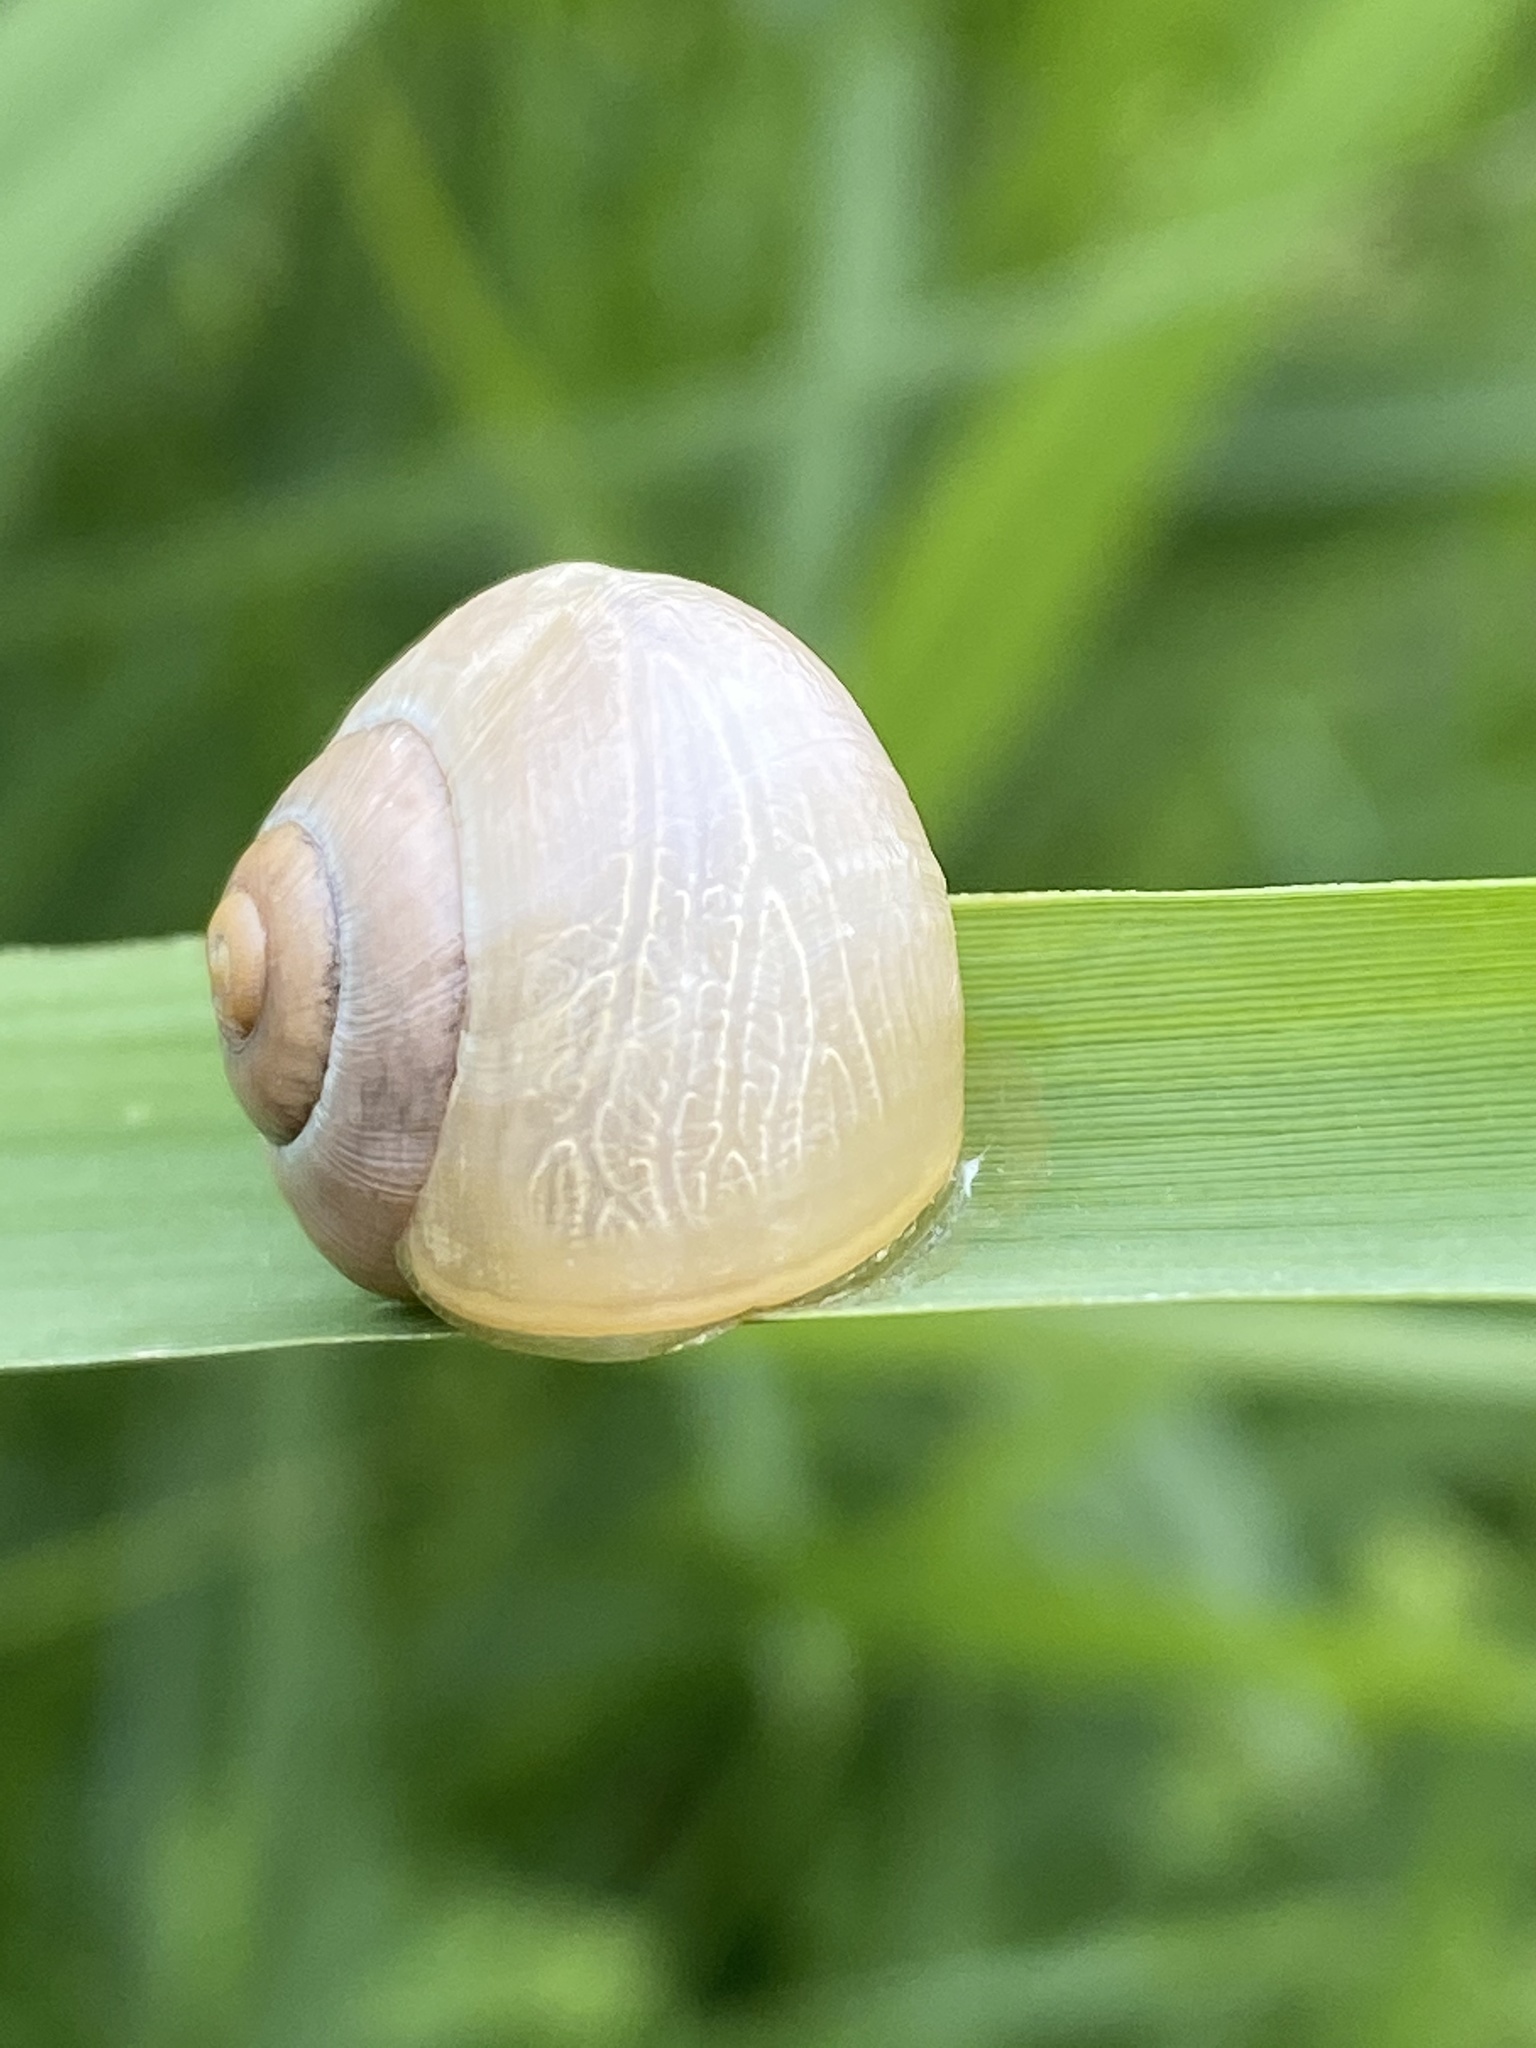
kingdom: Animalia
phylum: Mollusca
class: Gastropoda
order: Stylommatophora
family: Helicidae
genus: Cepaea
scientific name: Cepaea
